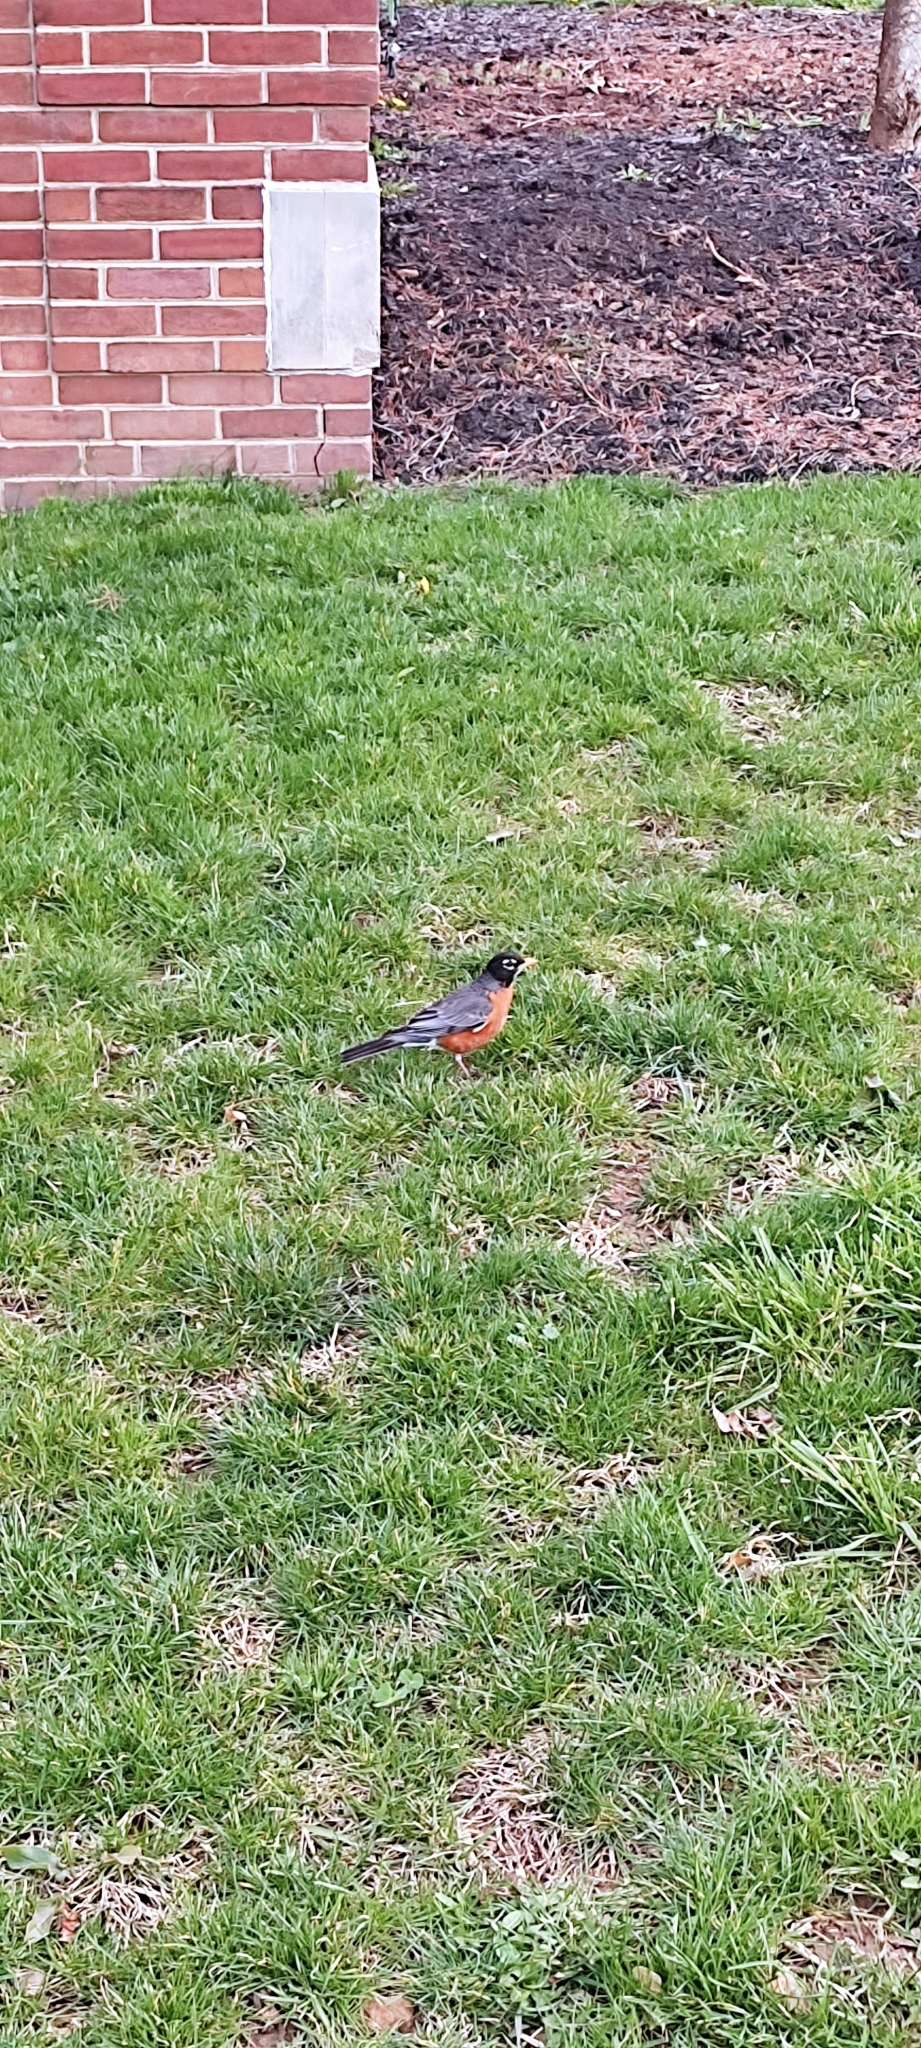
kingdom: Animalia
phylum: Chordata
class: Aves
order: Passeriformes
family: Turdidae
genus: Turdus
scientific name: Turdus migratorius
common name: American robin
